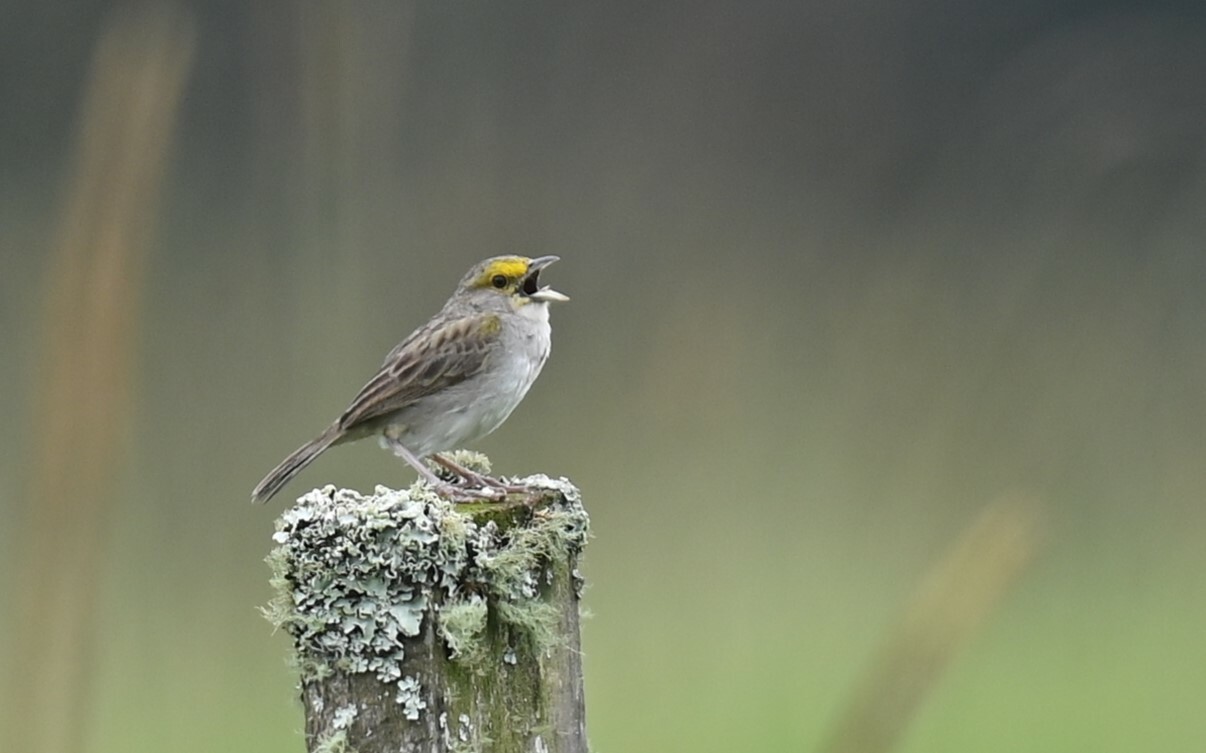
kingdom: Animalia
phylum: Chordata
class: Aves
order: Passeriformes
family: Passerellidae
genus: Ammodramus
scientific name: Ammodramus aurifrons
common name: Yellow-browed sparrow
